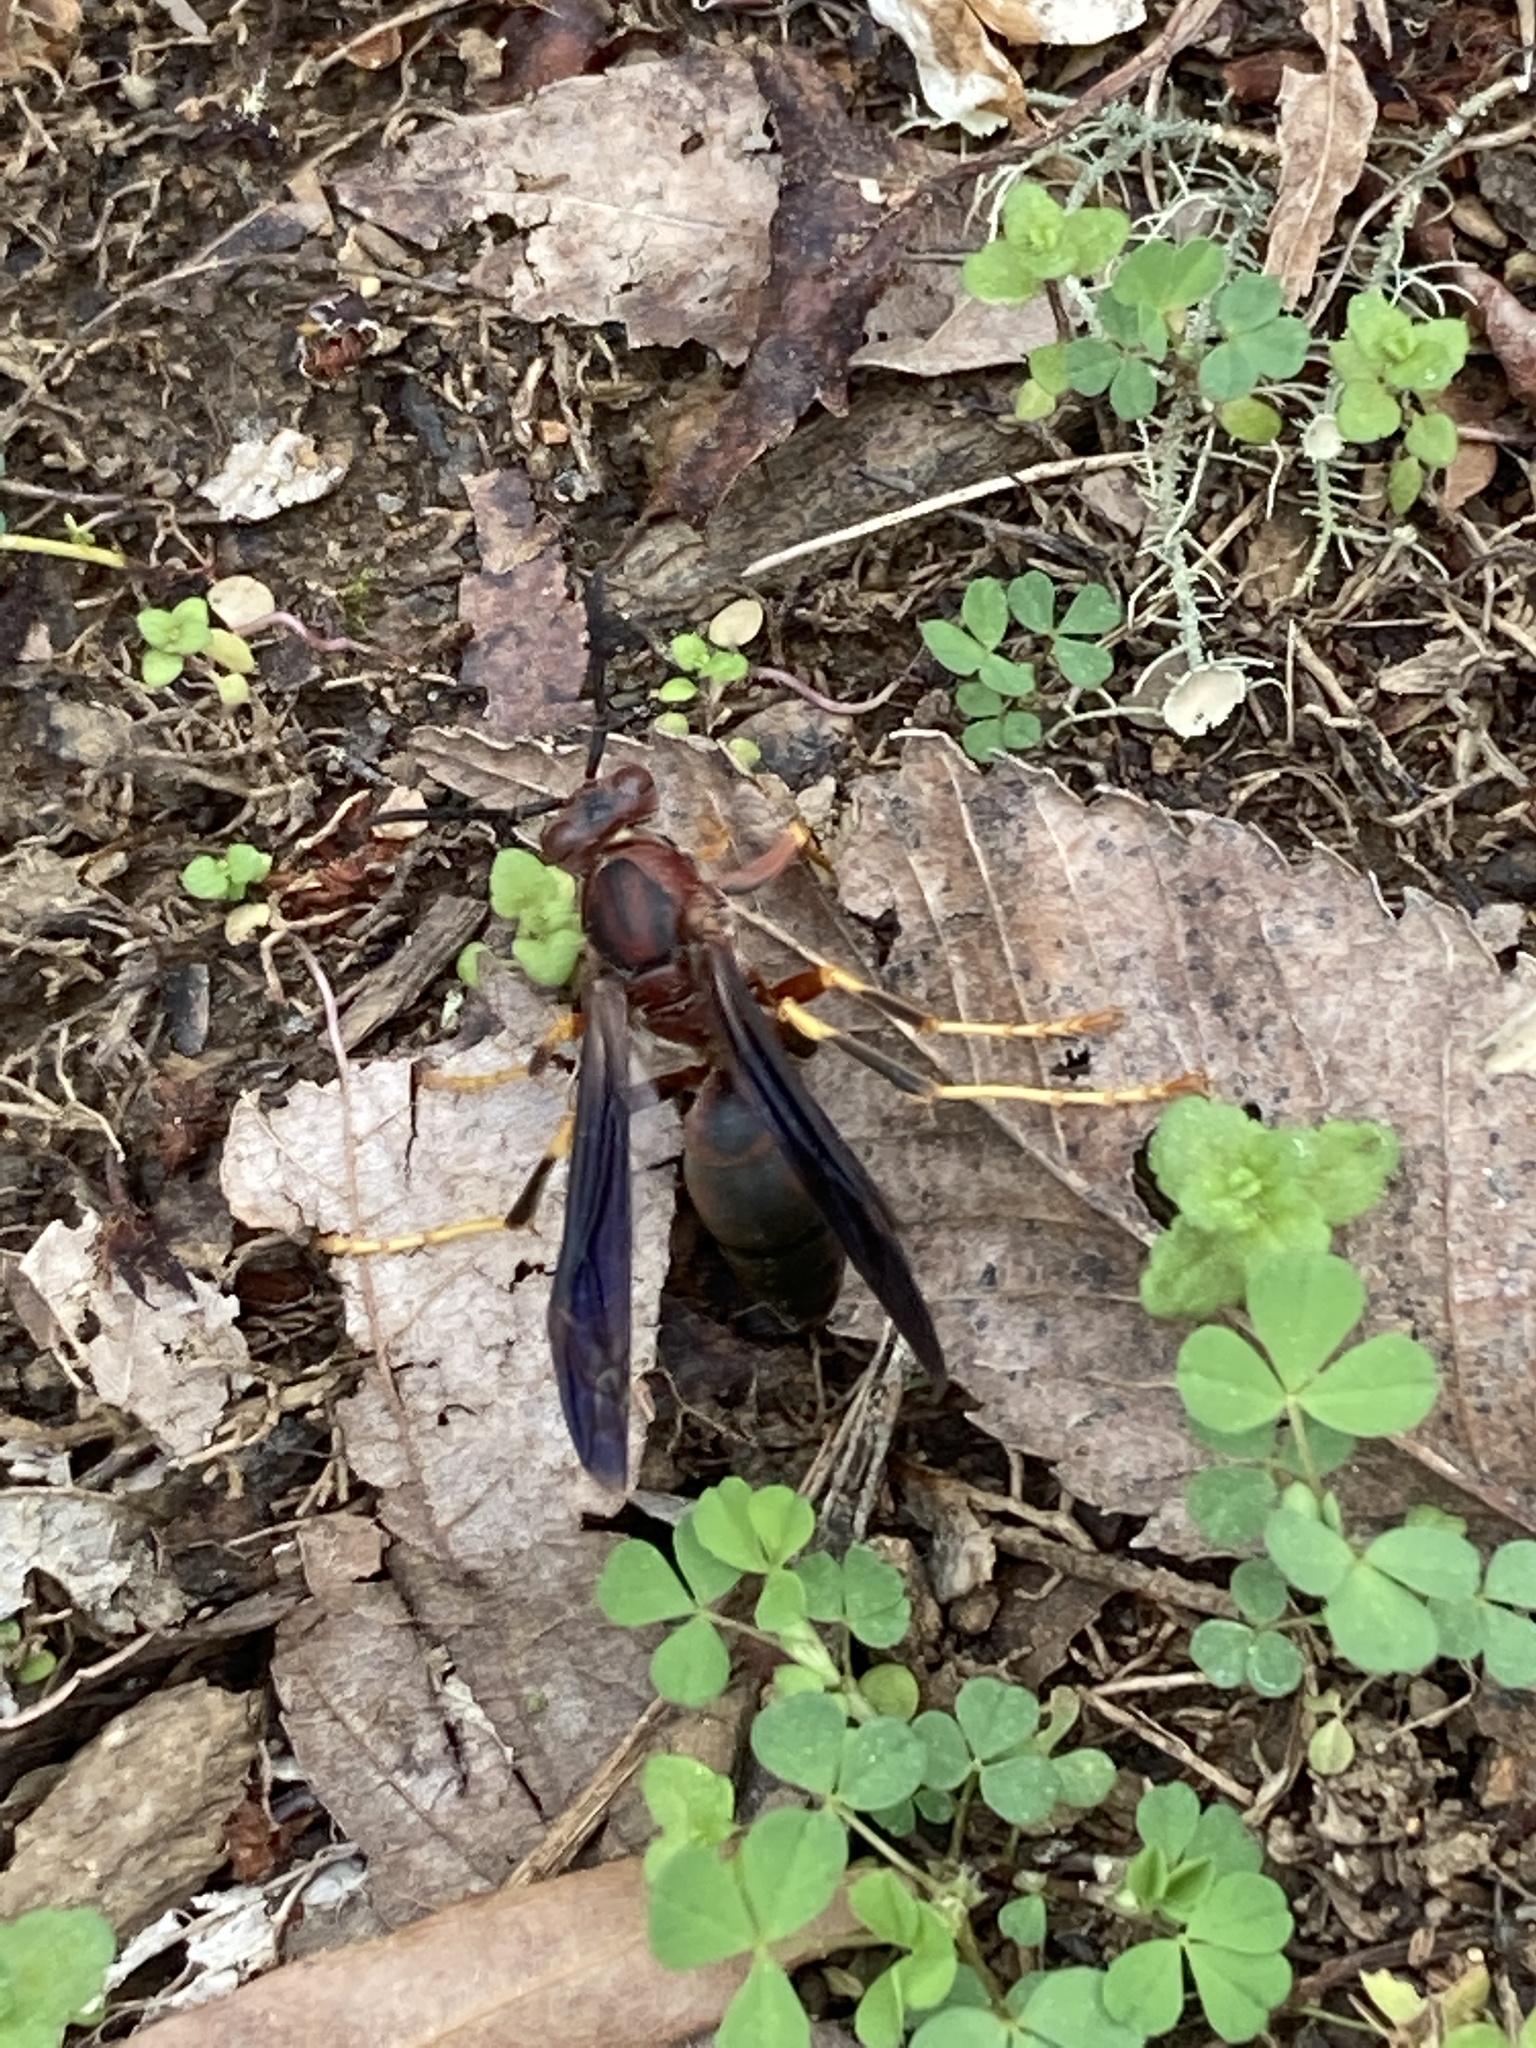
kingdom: Animalia
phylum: Arthropoda
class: Insecta
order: Hymenoptera
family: Eumenidae
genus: Polistes
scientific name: Polistes metricus
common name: Metric paper wasp
